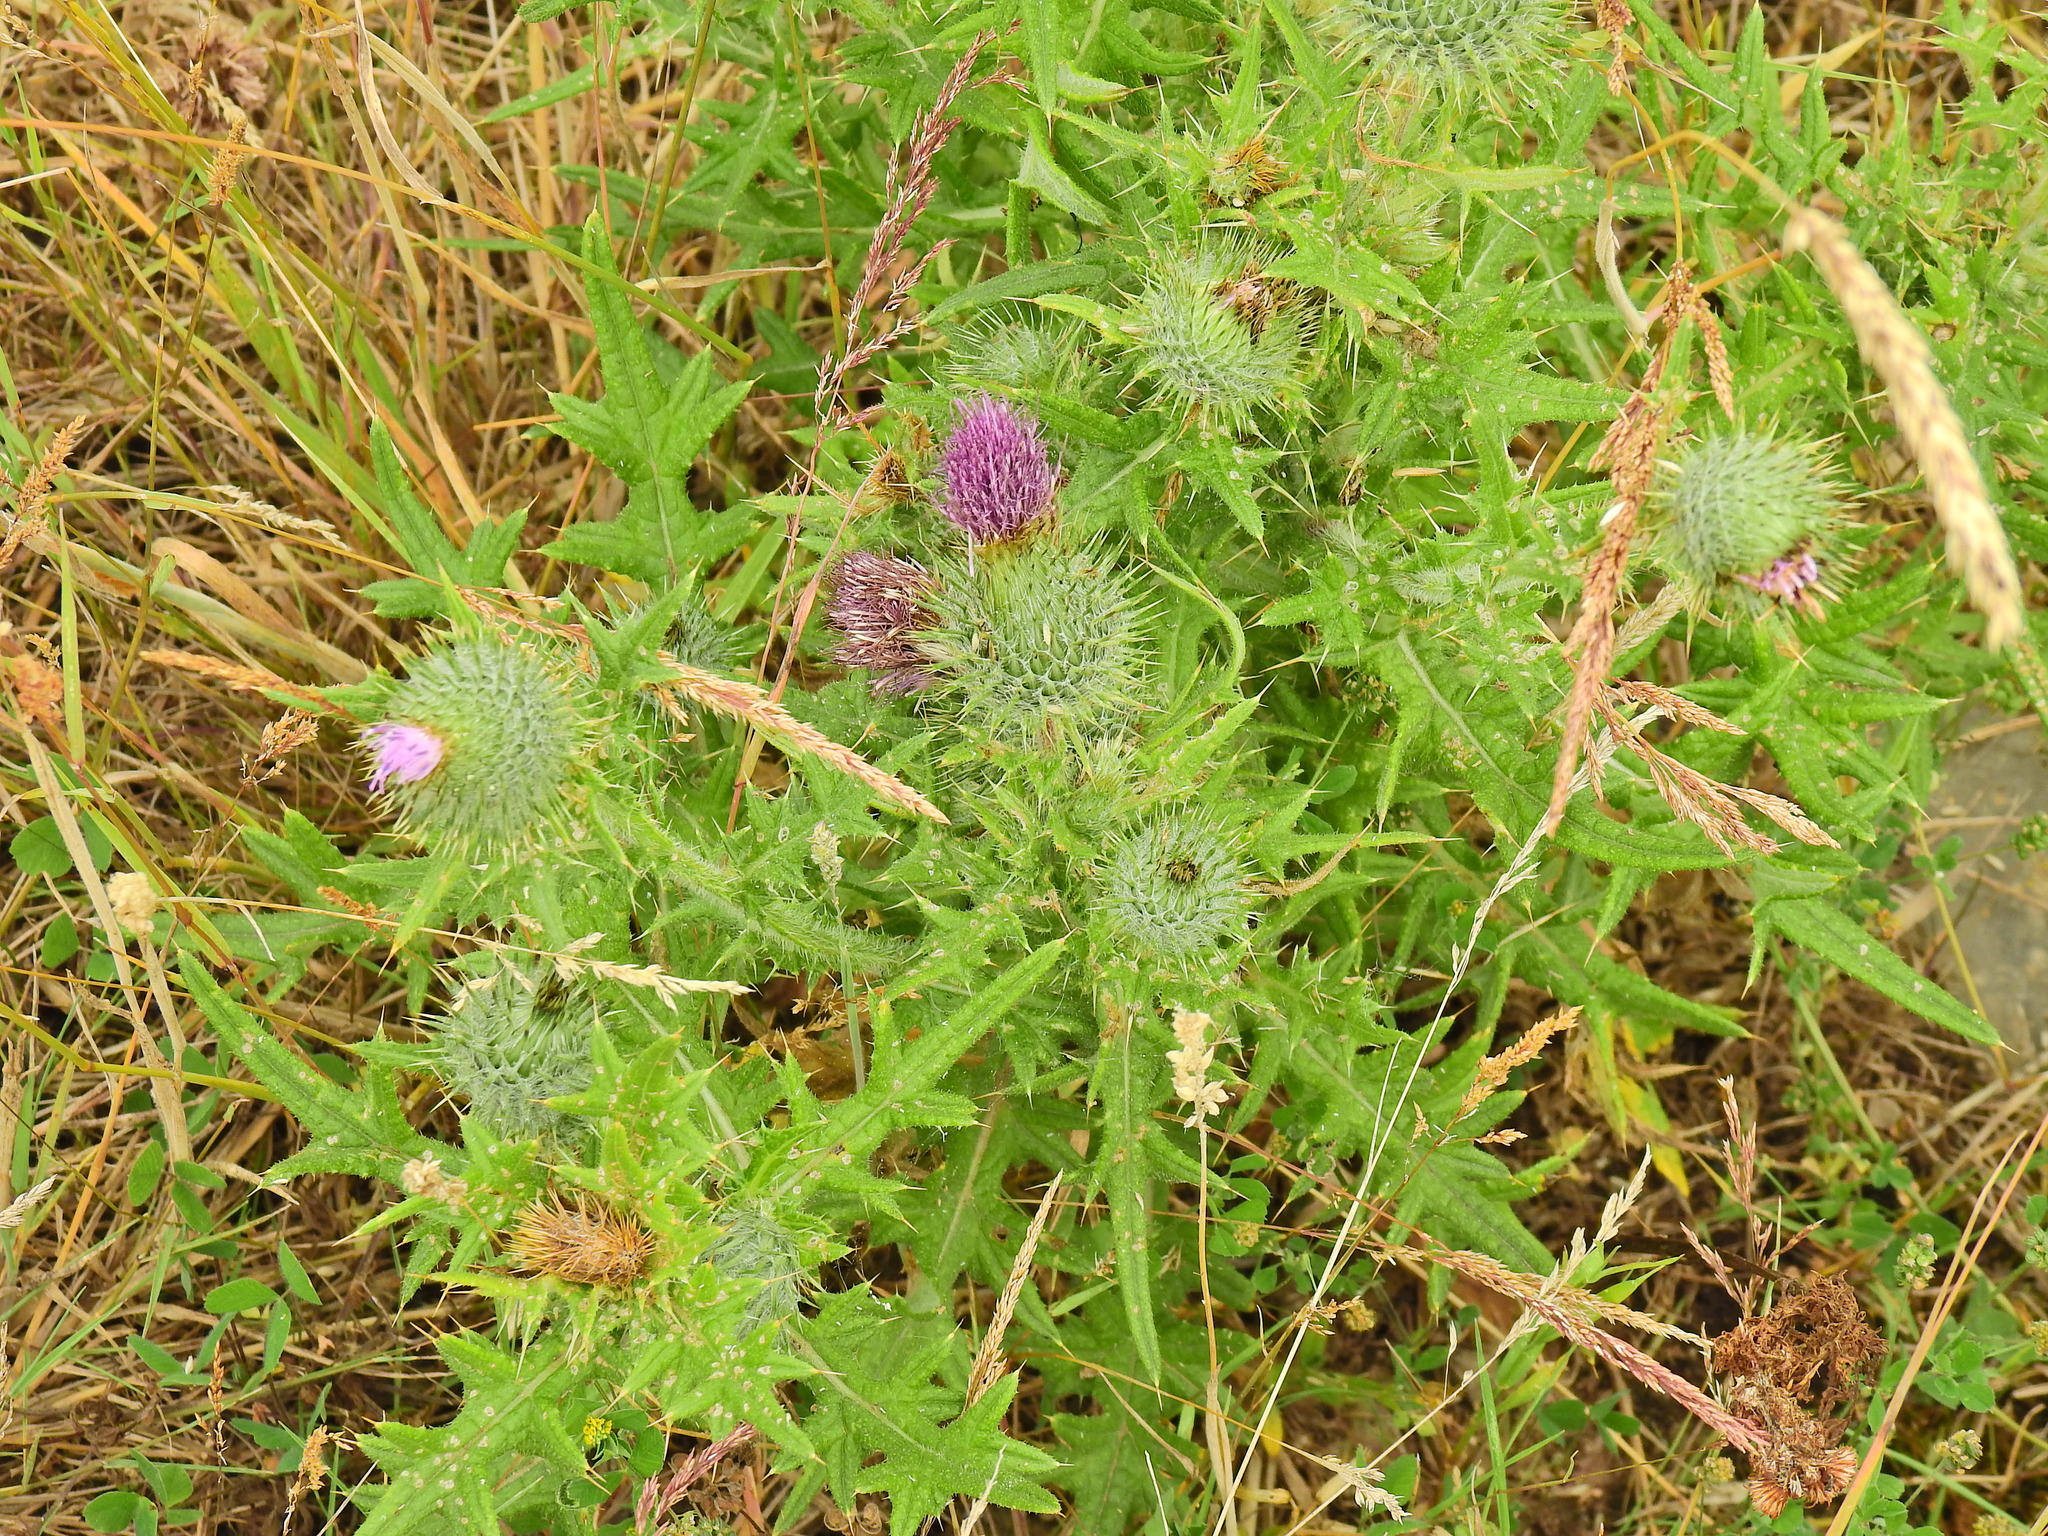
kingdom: Plantae
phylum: Tracheophyta
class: Magnoliopsida
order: Asterales
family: Asteraceae
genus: Cirsium
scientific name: Cirsium vulgare
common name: Bull thistle
